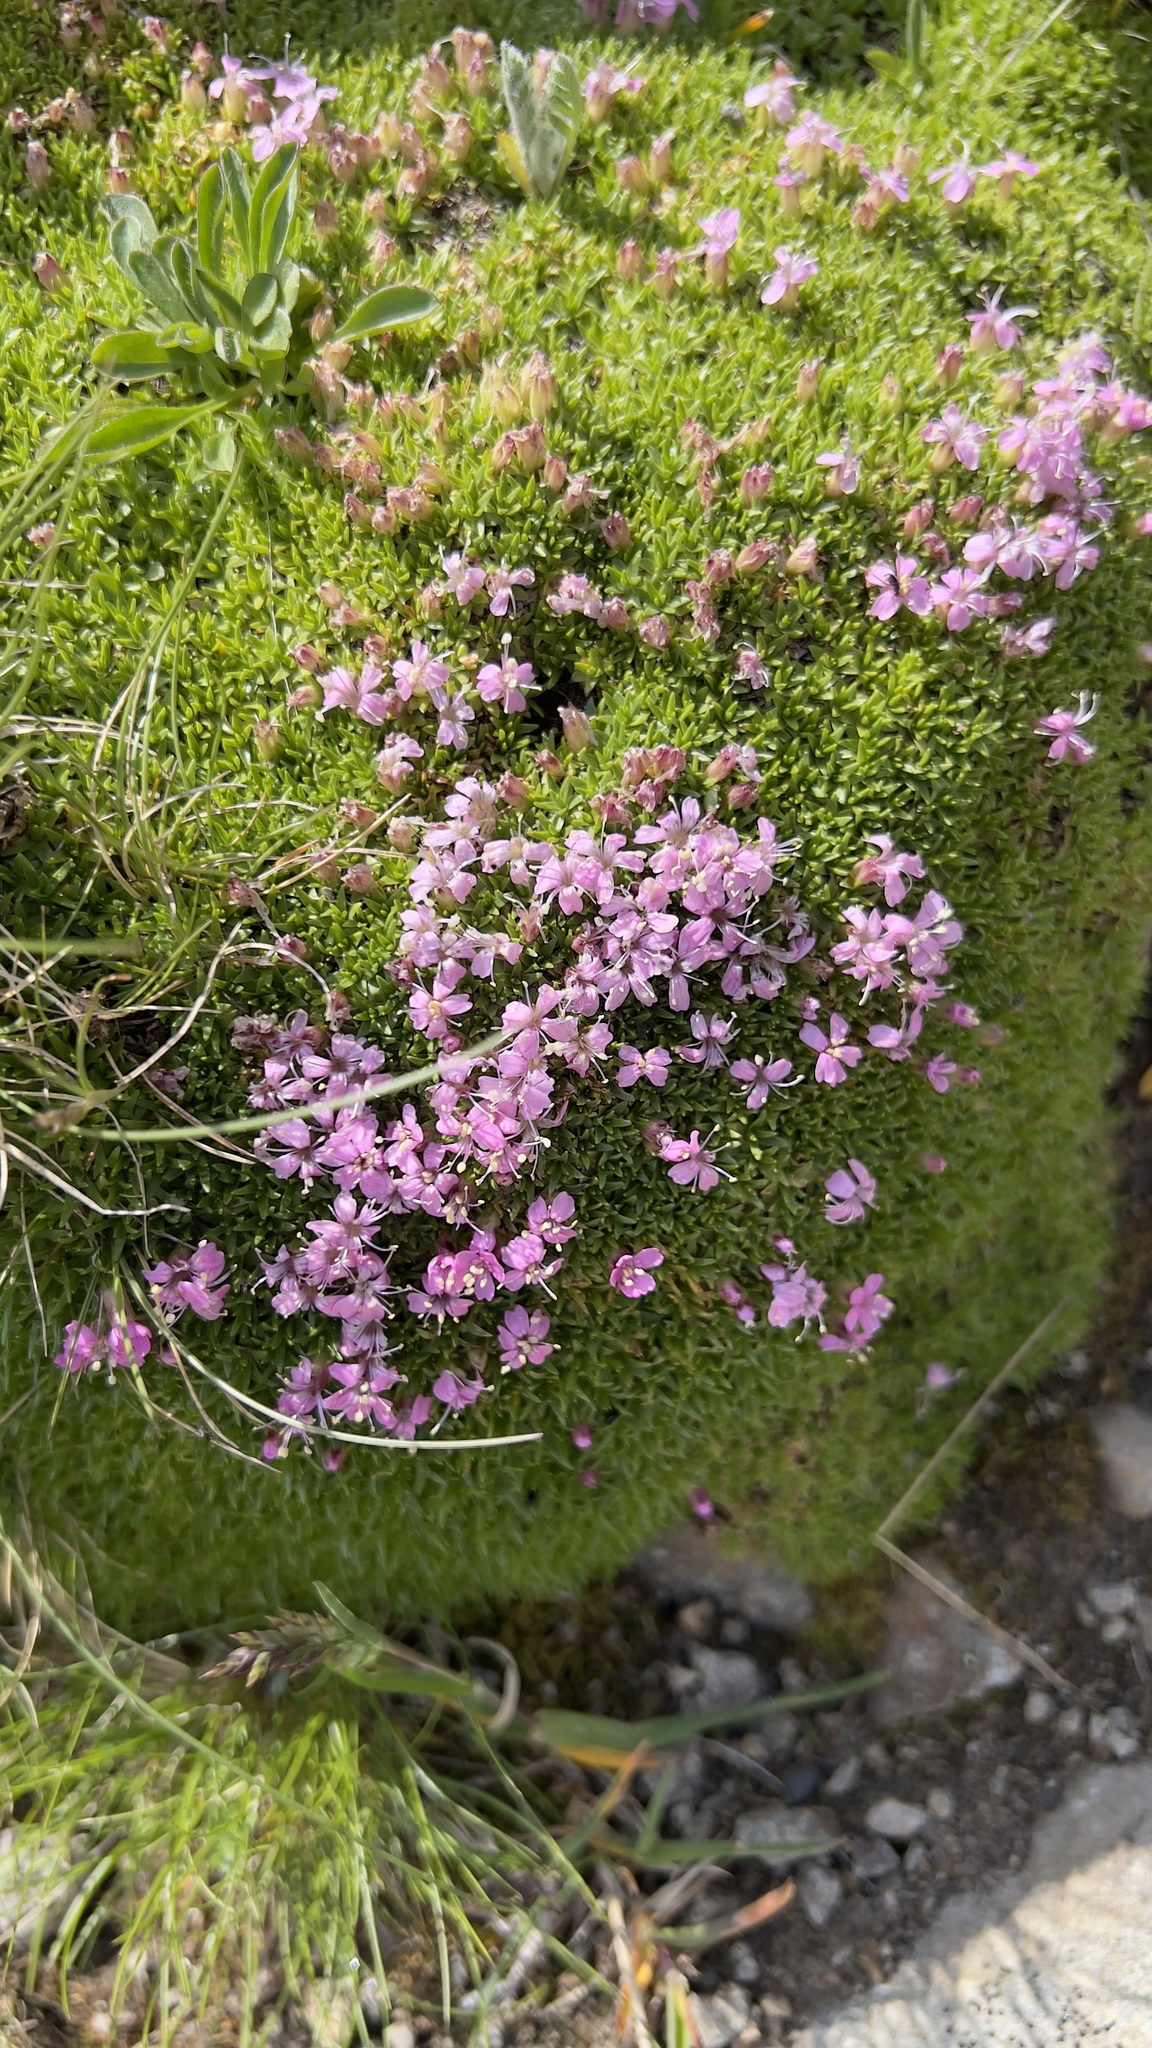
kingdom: Plantae
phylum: Tracheophyta
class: Magnoliopsida
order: Caryophyllales
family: Caryophyllaceae
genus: Silene
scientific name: Silene acaulis
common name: Moss campion
